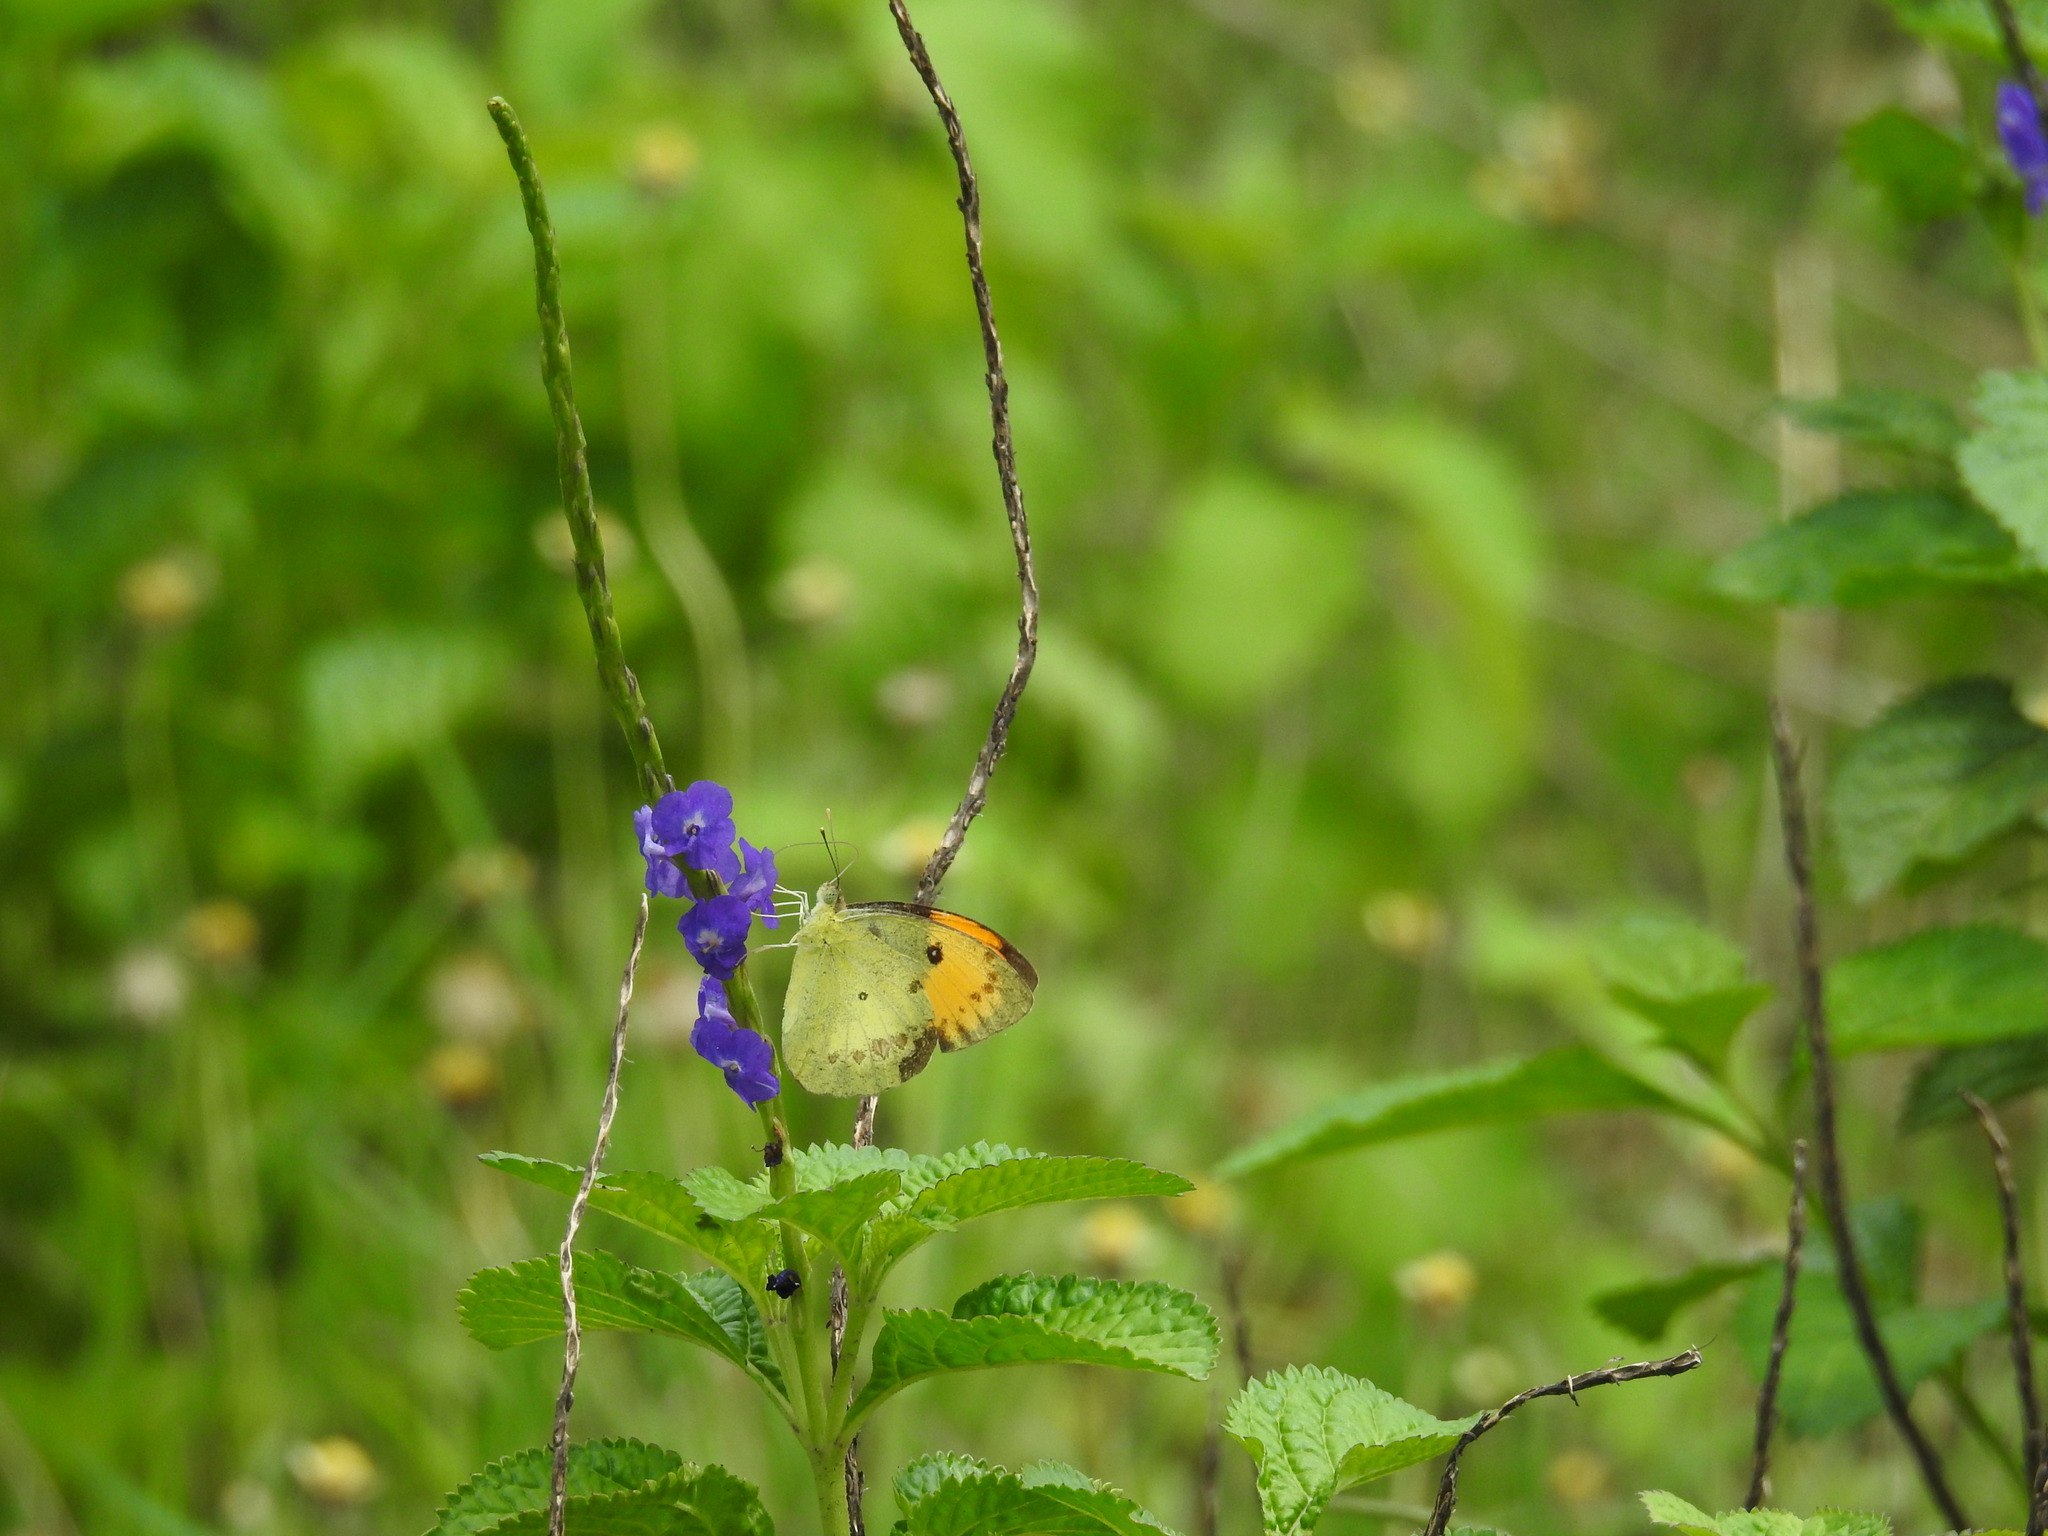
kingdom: Animalia
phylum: Arthropoda
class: Insecta
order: Lepidoptera
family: Pieridae
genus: Ixias
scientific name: Ixias pyrene
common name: Yellow orange tip
